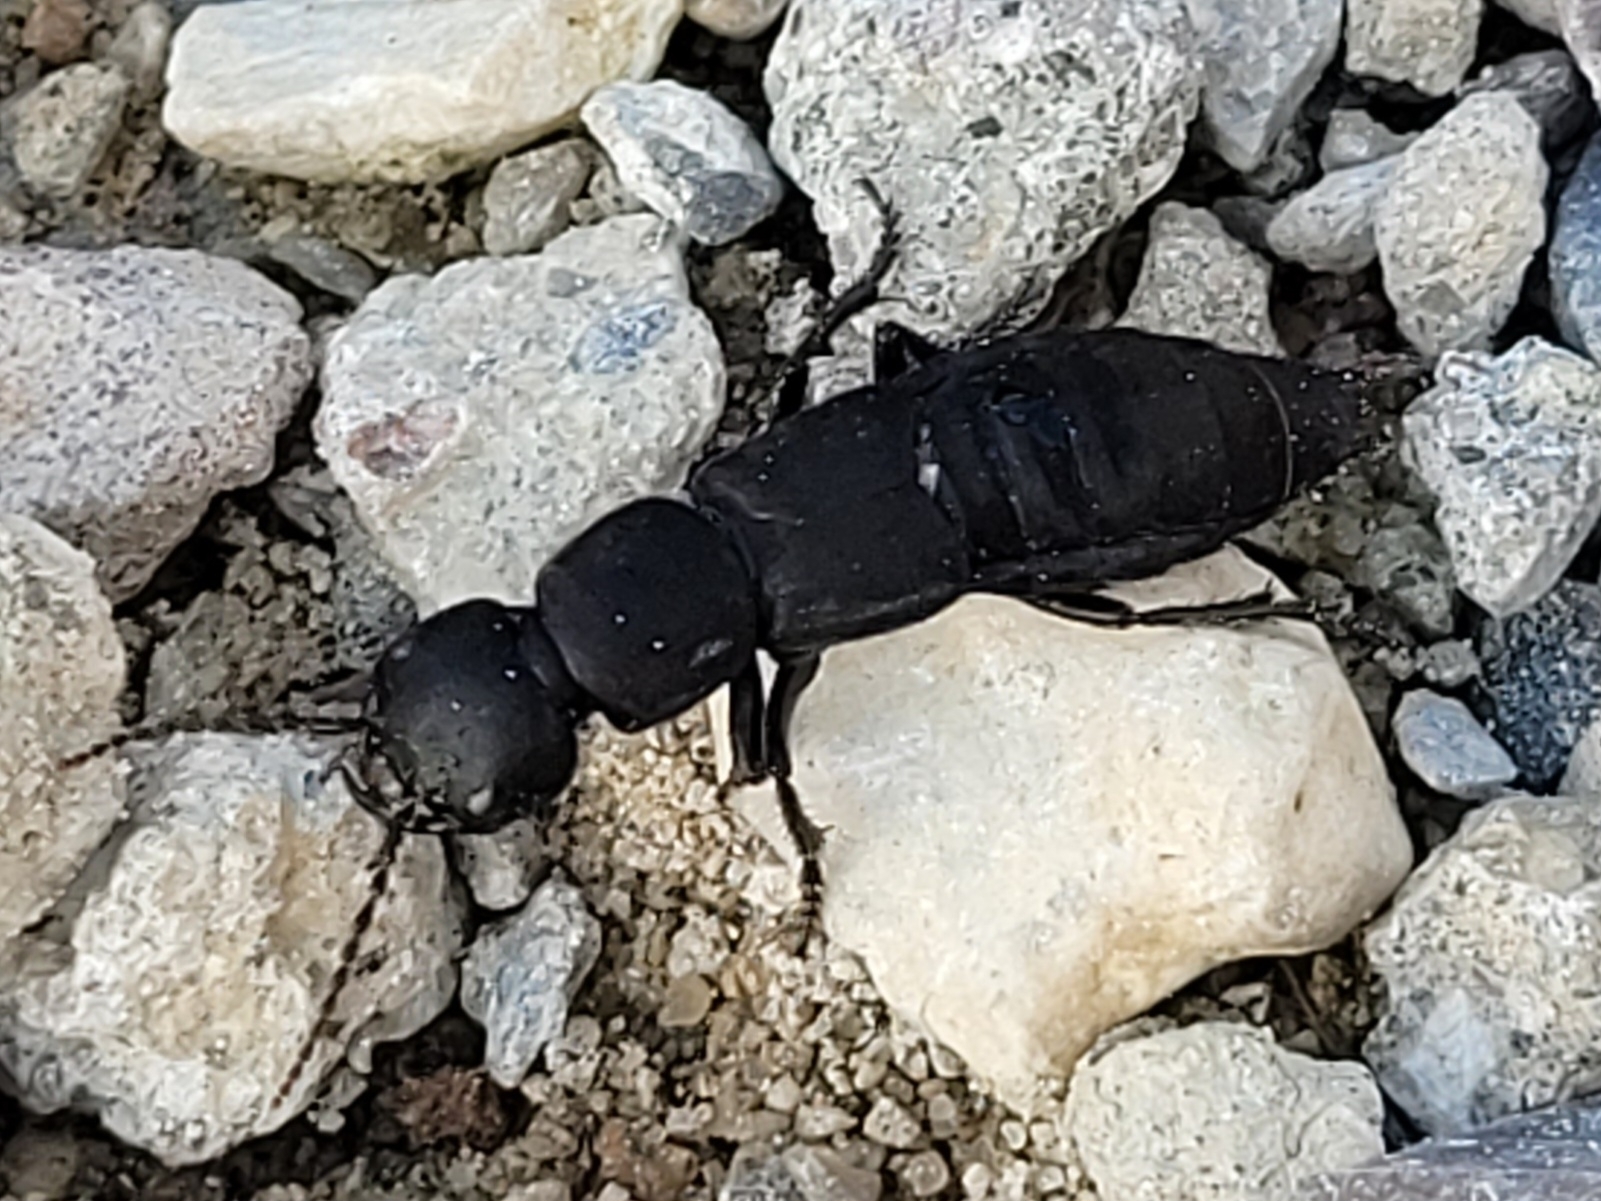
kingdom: Animalia
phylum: Arthropoda
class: Insecta
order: Coleoptera
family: Staphylinidae
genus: Ocypus
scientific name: Ocypus olens
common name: Devil's coach-horse
